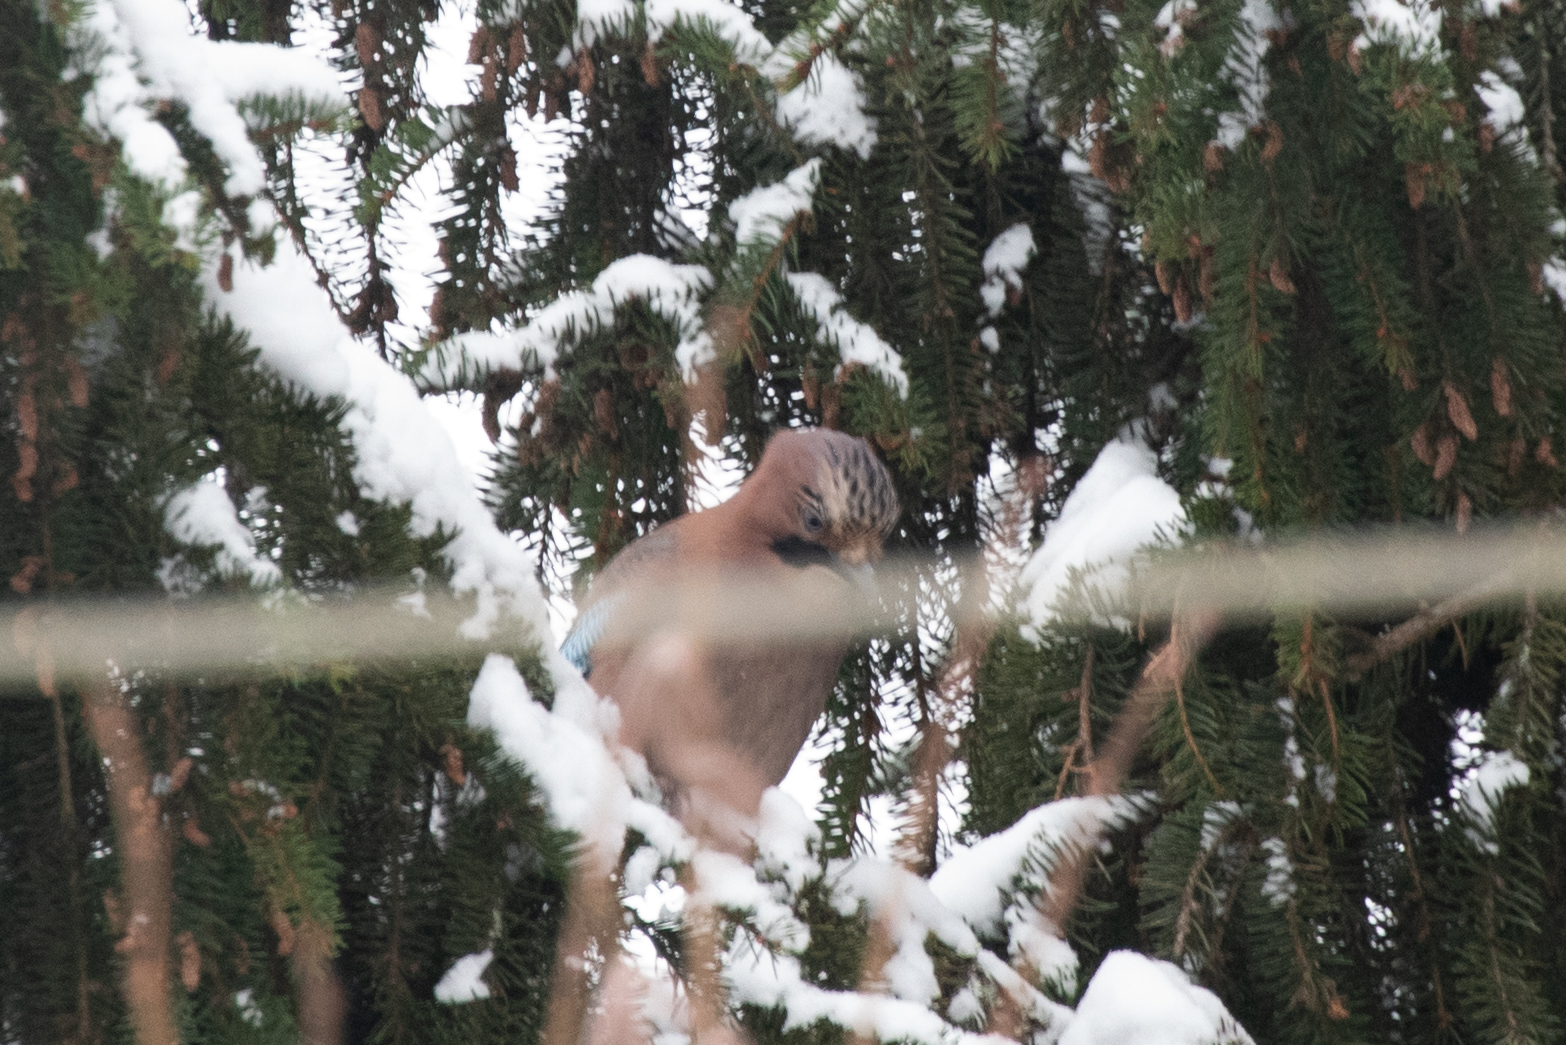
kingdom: Animalia
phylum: Chordata
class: Aves
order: Passeriformes
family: Corvidae
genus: Garrulus
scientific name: Garrulus glandarius
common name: Eurasian jay
